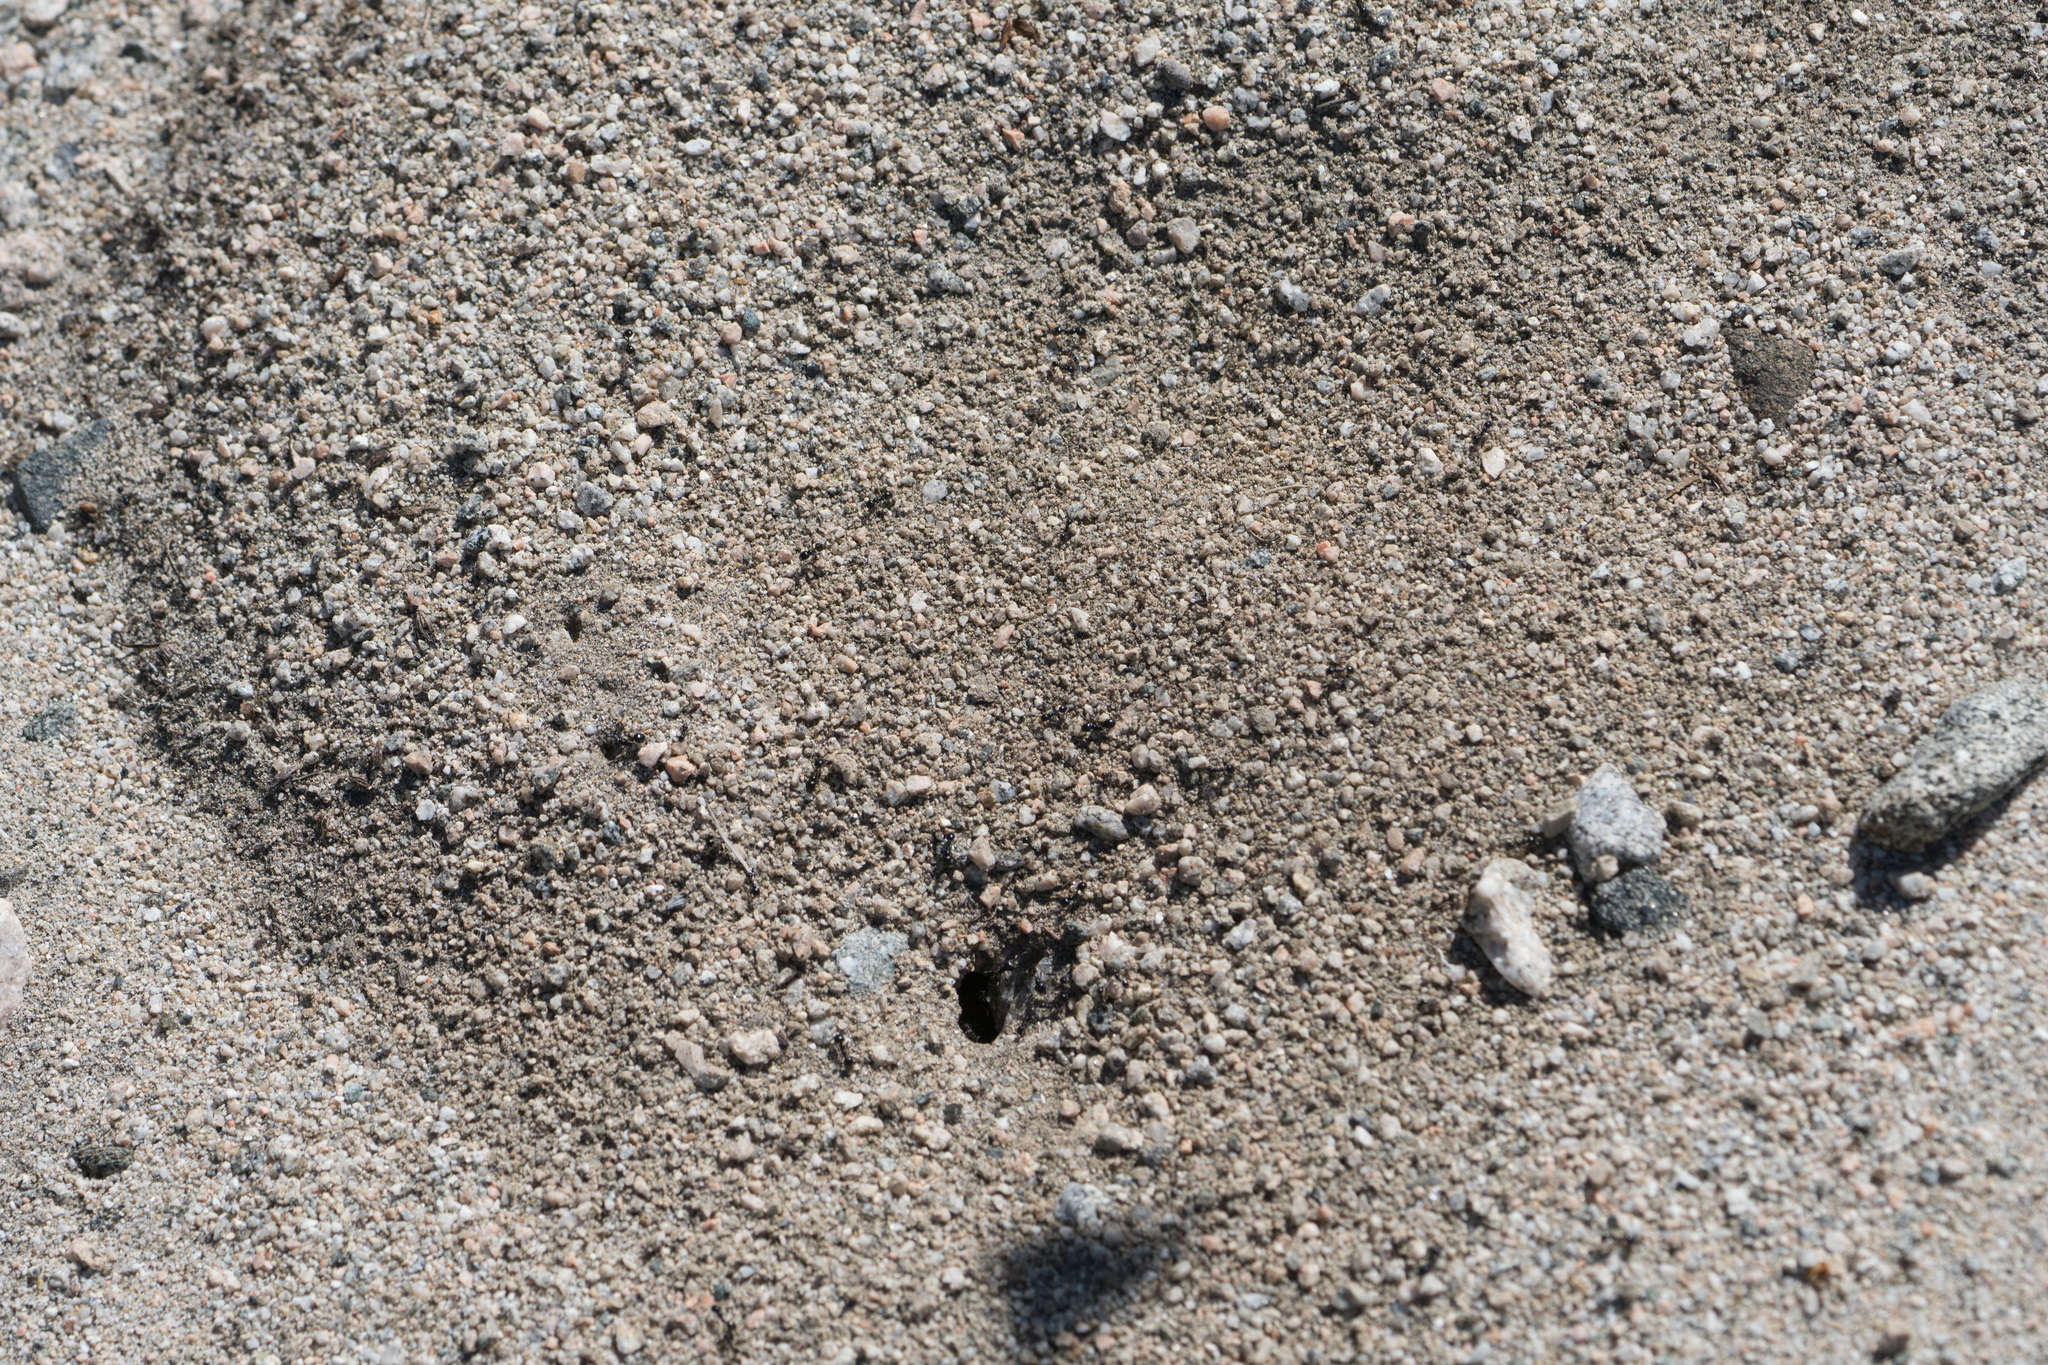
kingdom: Animalia
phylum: Arthropoda
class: Insecta
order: Hymenoptera
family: Formicidae
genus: Messor
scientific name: Messor pergandei
